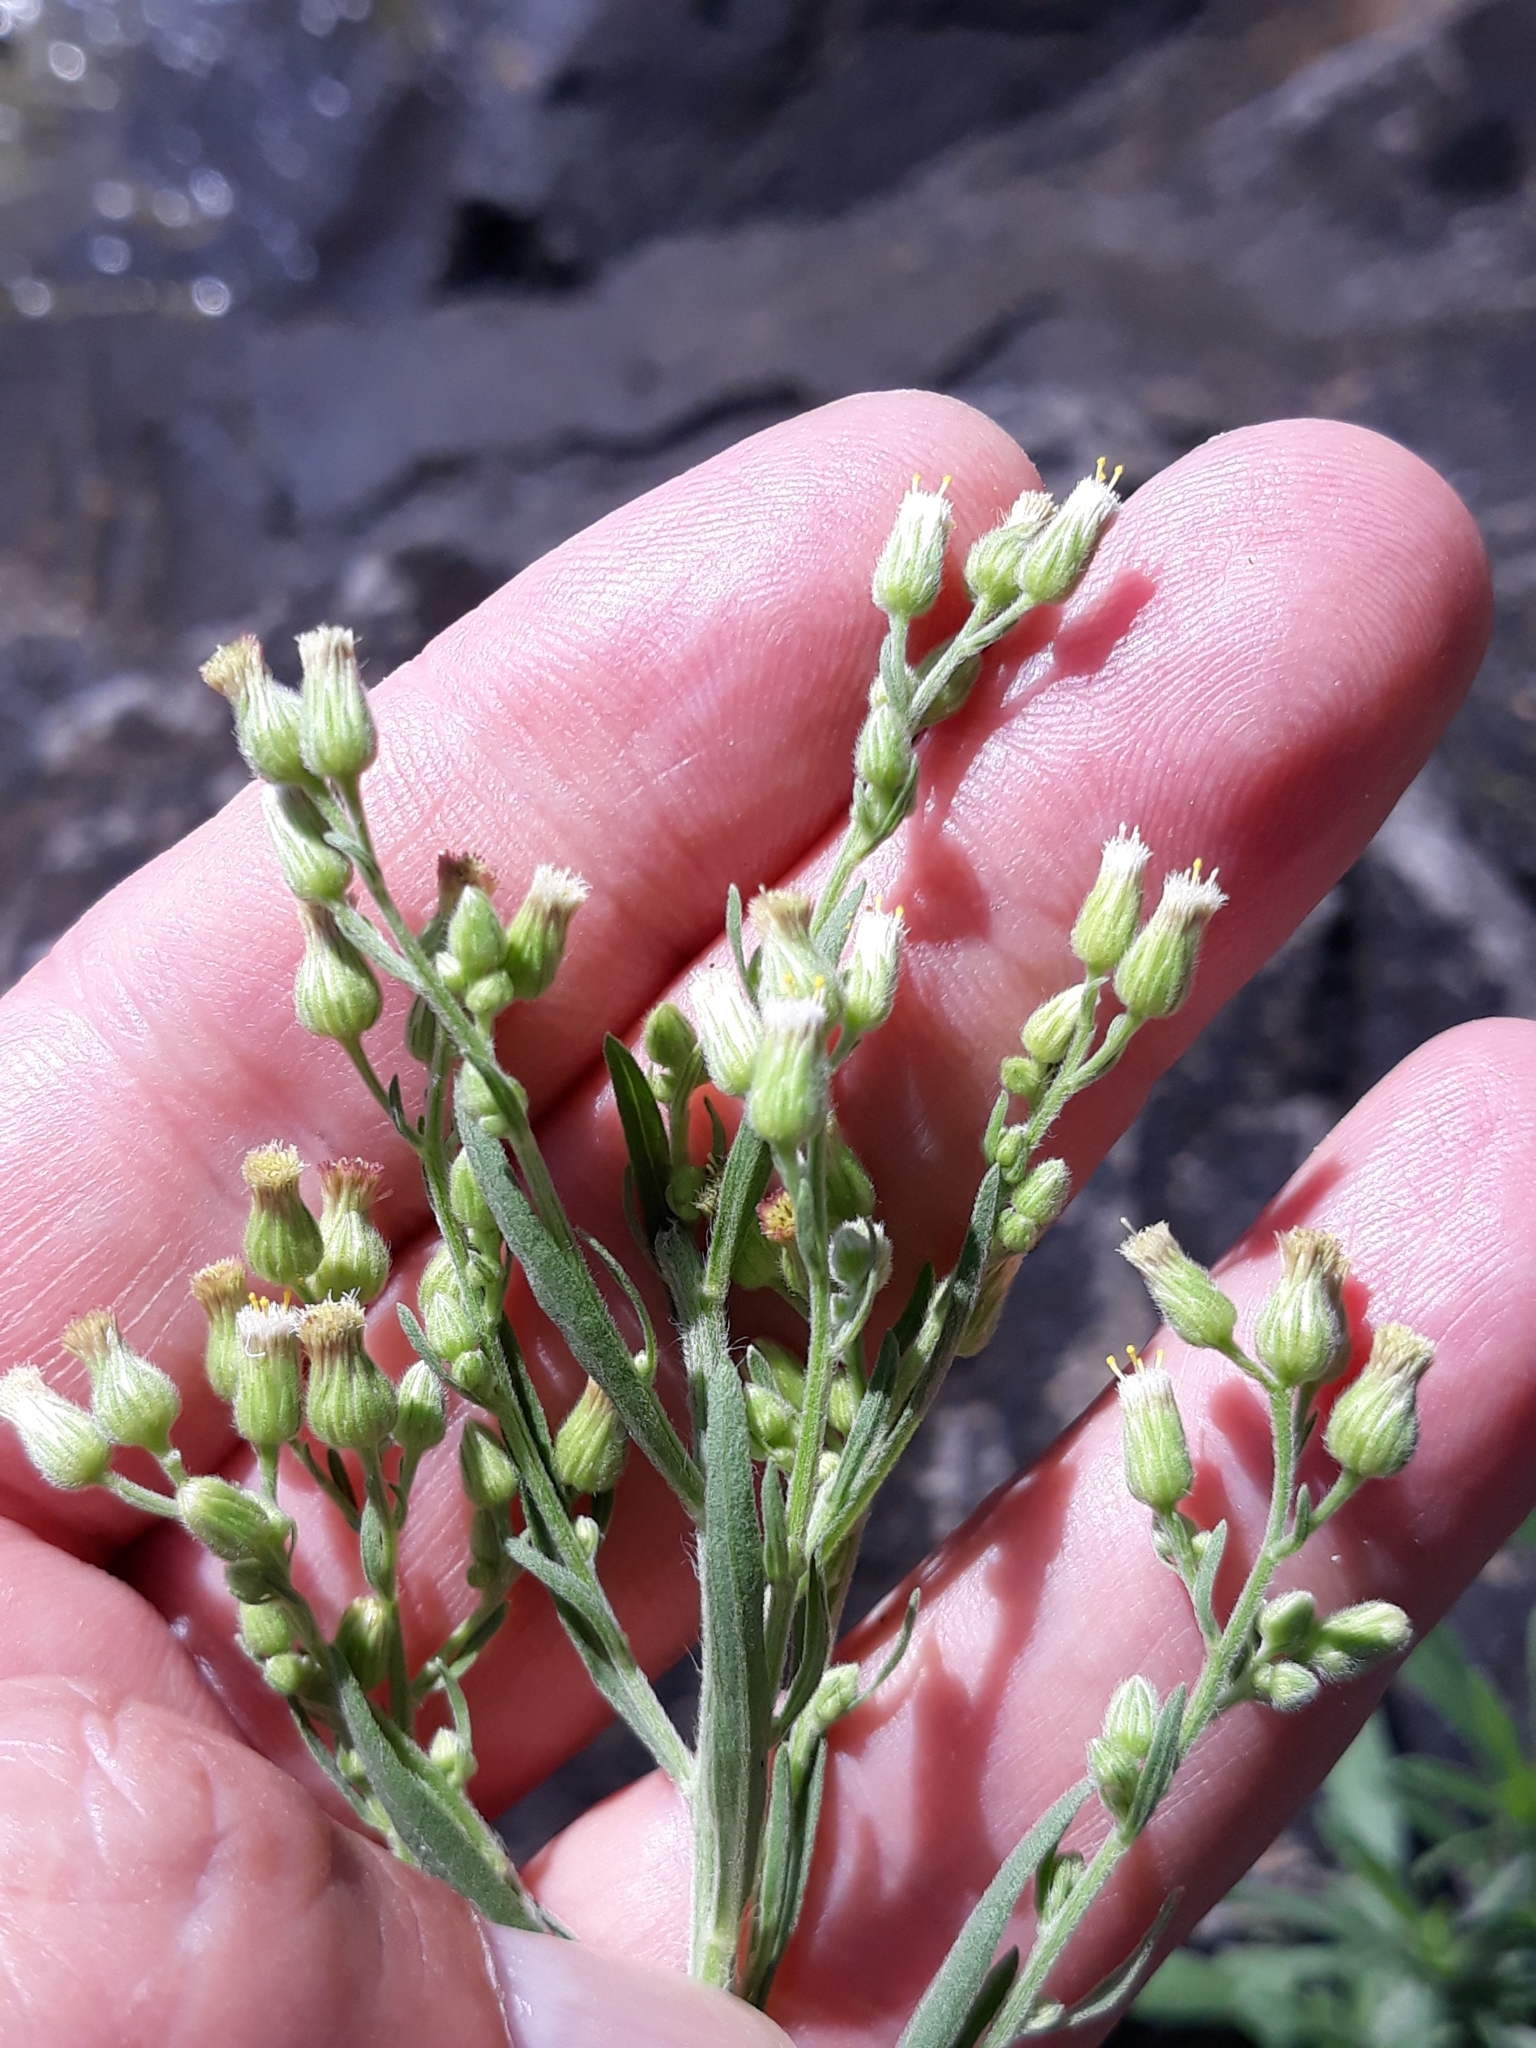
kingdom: Plantae
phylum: Tracheophyta
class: Magnoliopsida
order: Asterales
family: Asteraceae
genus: Erigeron
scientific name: Erigeron canadensis
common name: Canadian fleabane
